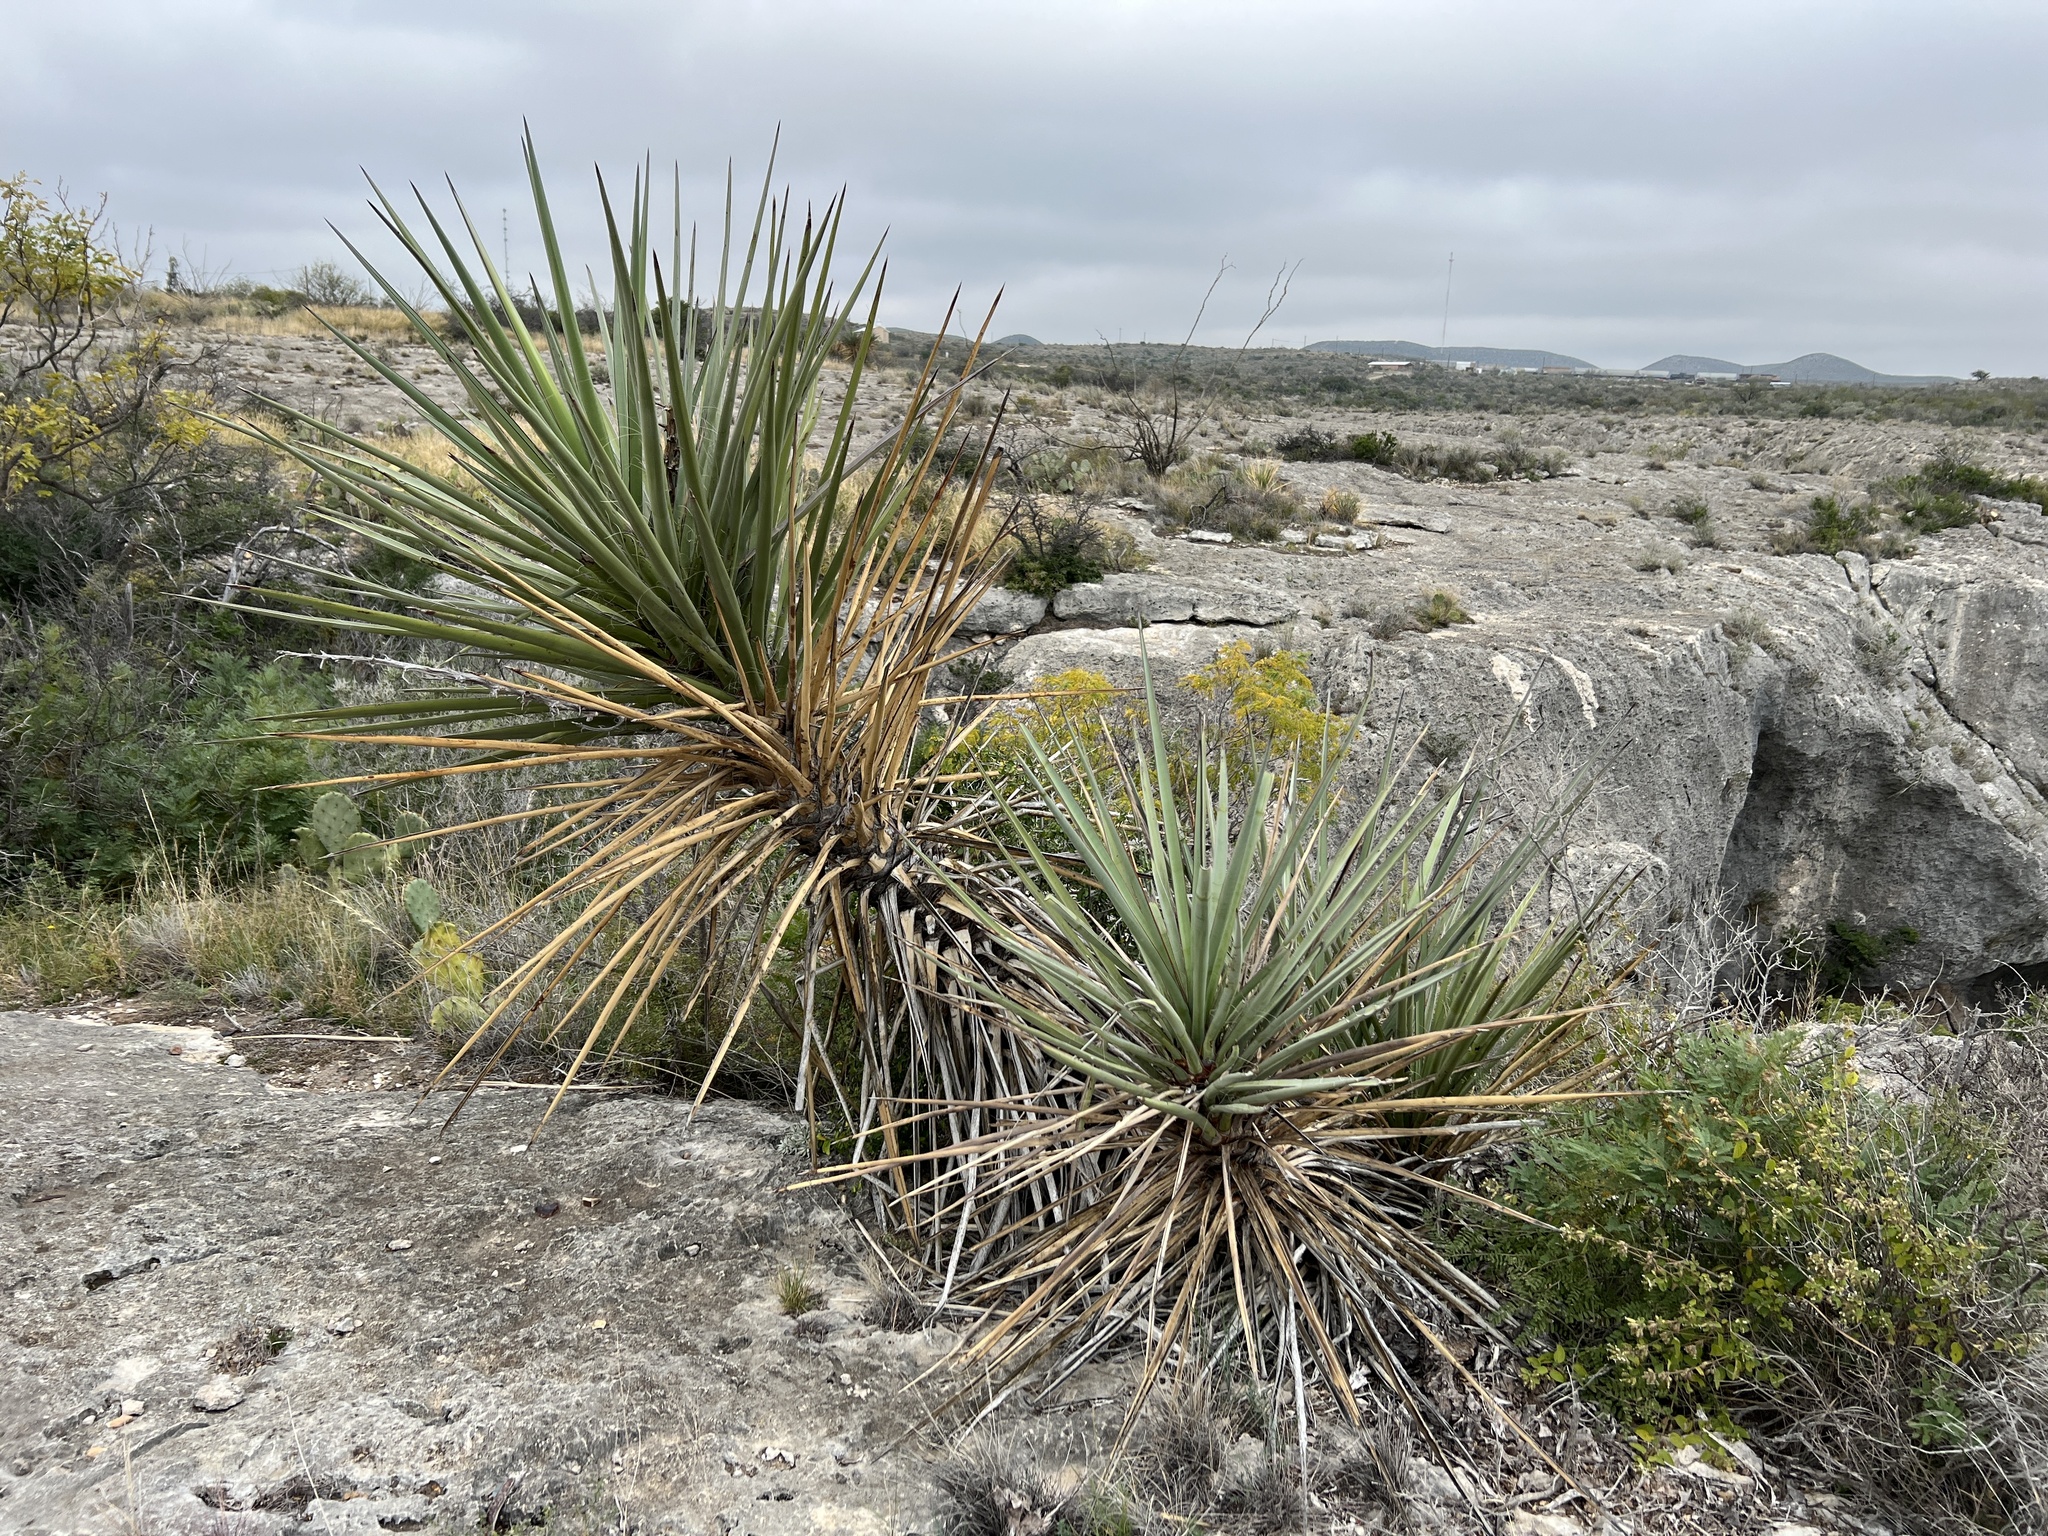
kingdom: Plantae
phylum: Tracheophyta
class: Liliopsida
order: Asparagales
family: Asparagaceae
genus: Yucca
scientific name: Yucca treculiana
